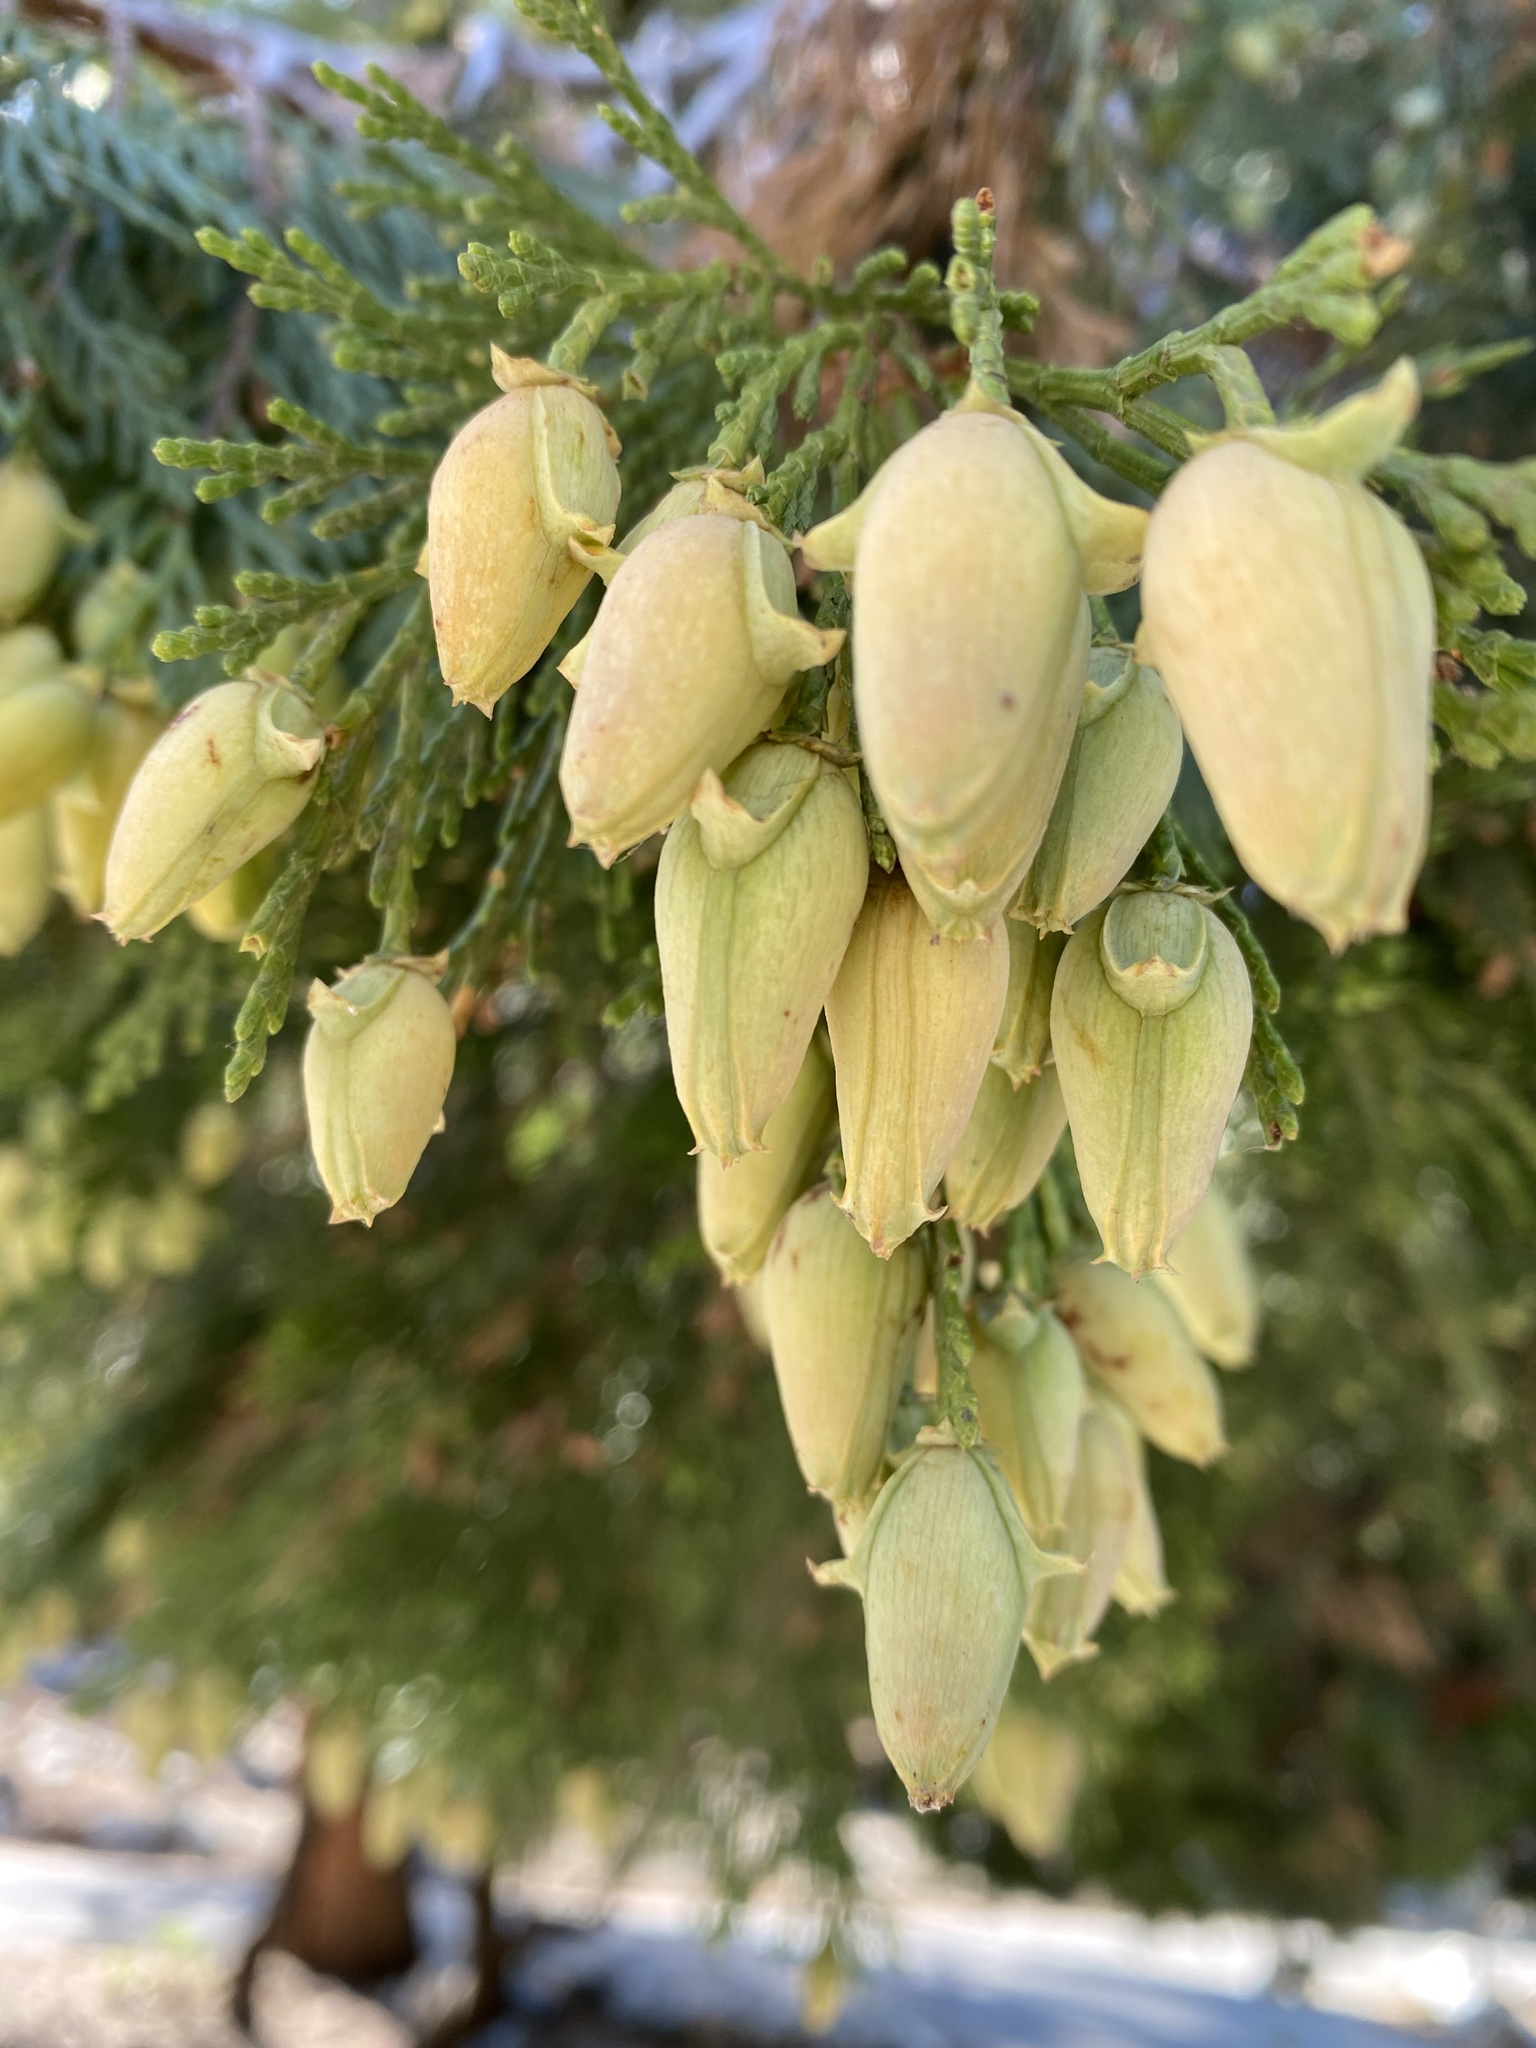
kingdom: Plantae
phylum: Tracheophyta
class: Pinopsida
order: Pinales
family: Cupressaceae
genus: Calocedrus
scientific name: Calocedrus decurrens
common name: Californian incense-cedar
